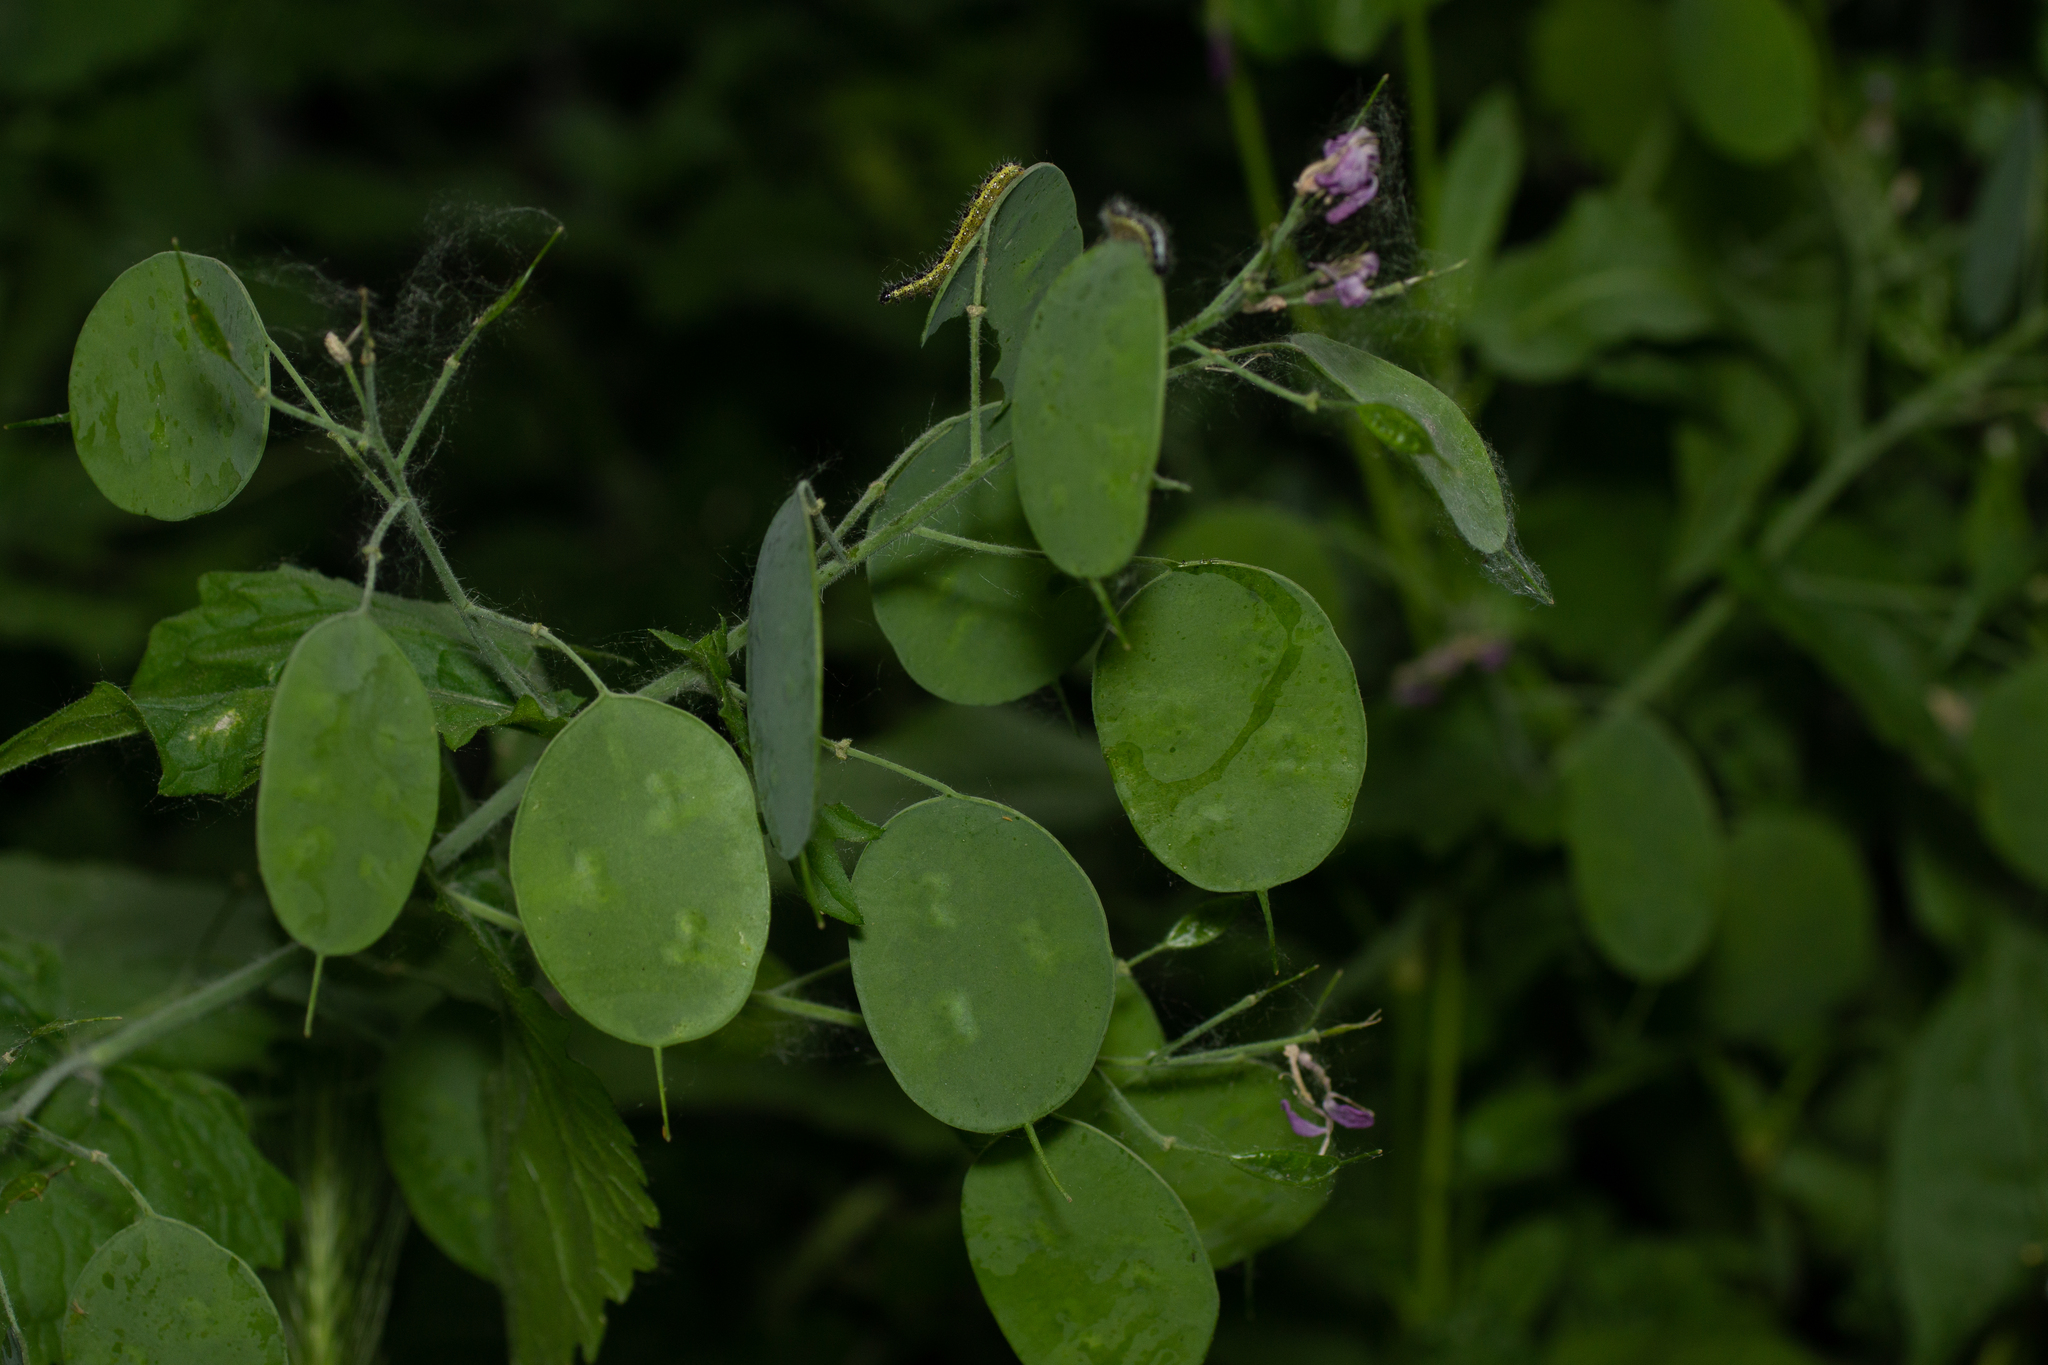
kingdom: Plantae
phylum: Tracheophyta
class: Magnoliopsida
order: Brassicales
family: Brassicaceae
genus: Lunaria
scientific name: Lunaria annua
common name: Honesty
